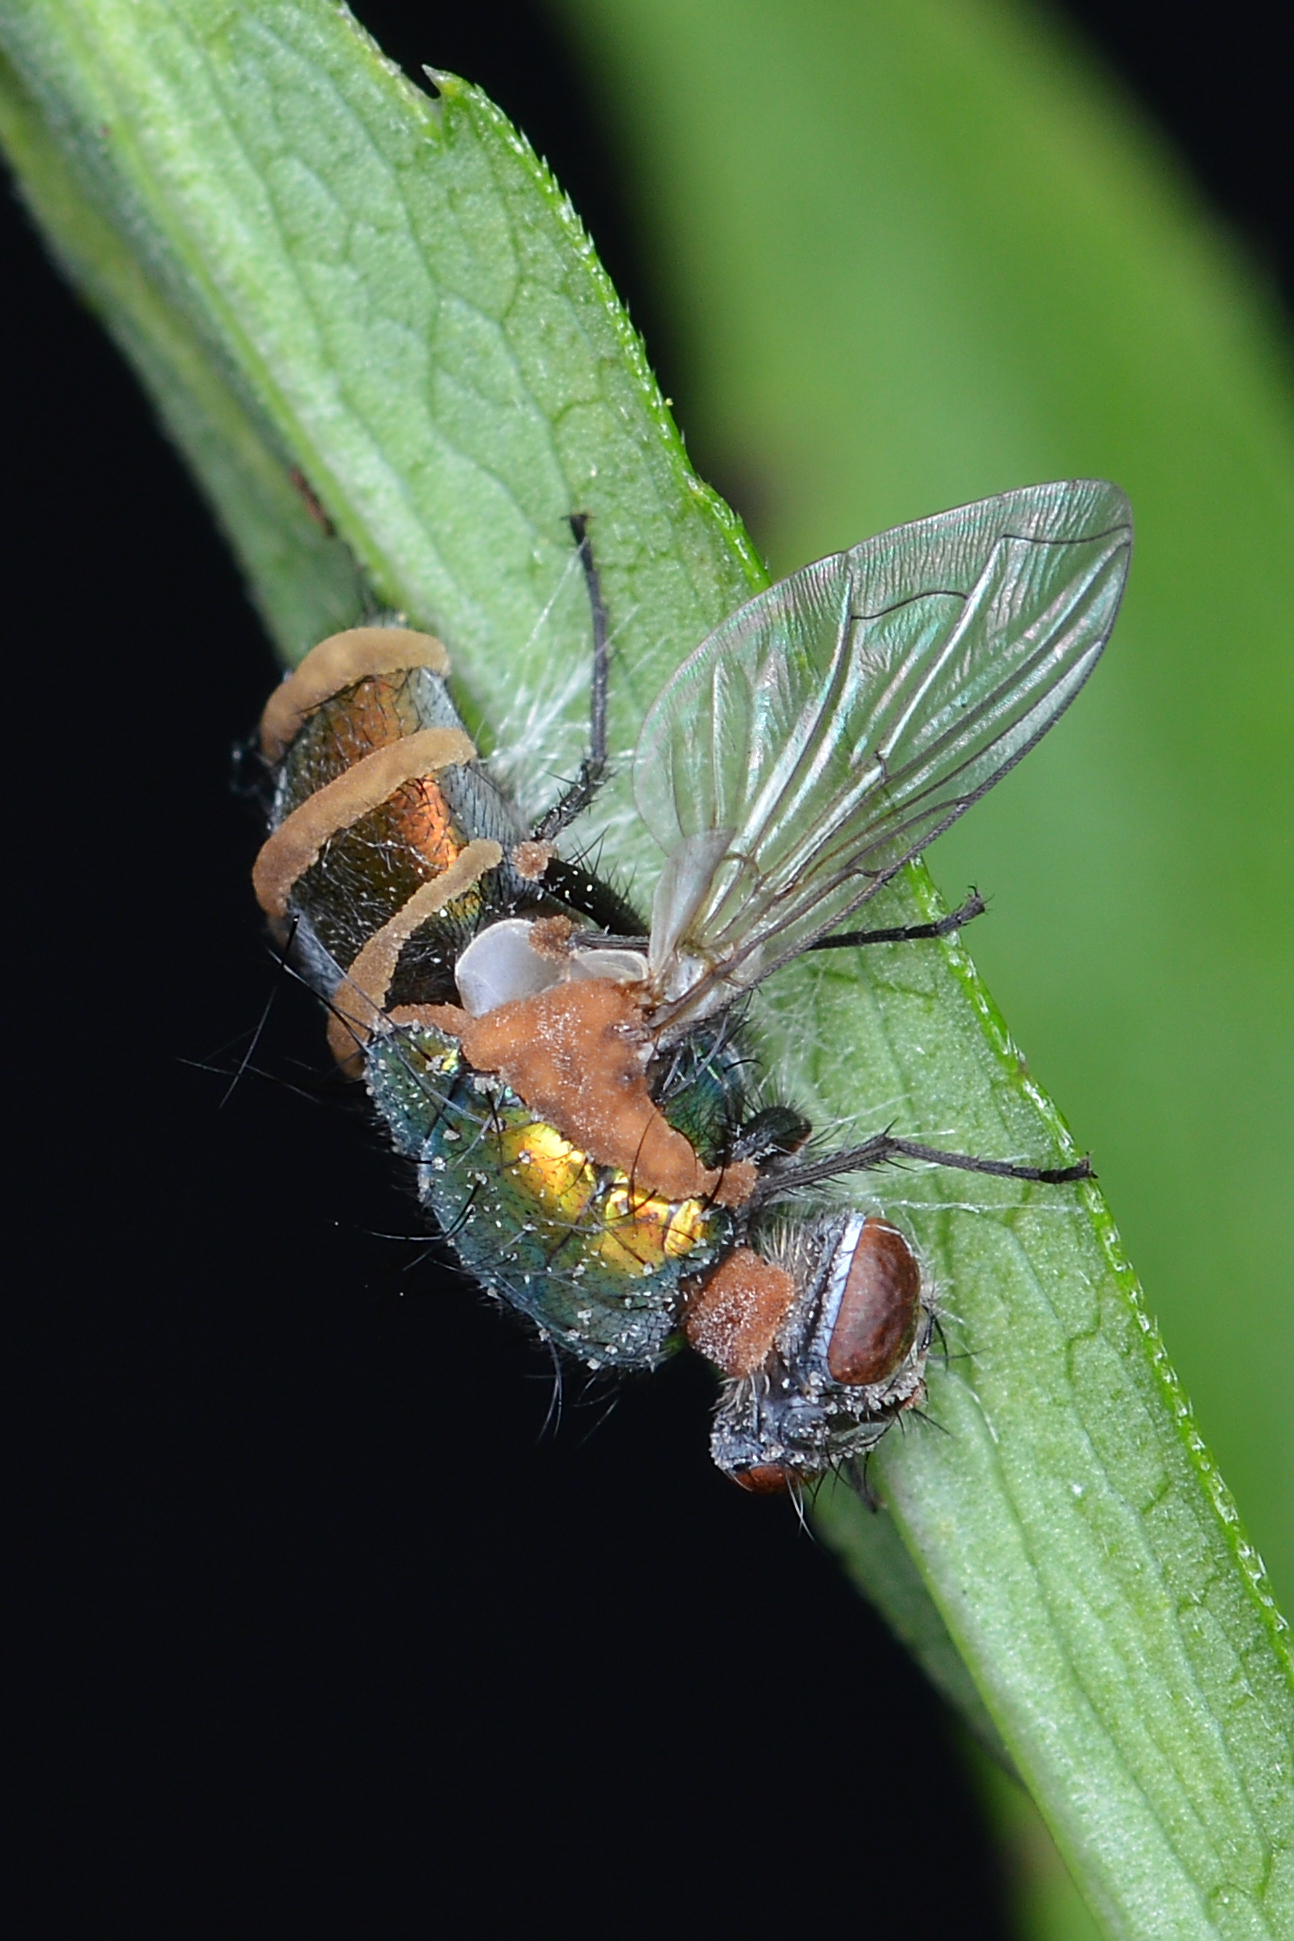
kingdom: Fungi
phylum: Entomophthoromycota
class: Entomophthoromycetes
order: Entomophthorales
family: Entomophthoraceae
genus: Entomophthora
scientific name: Entomophthora
